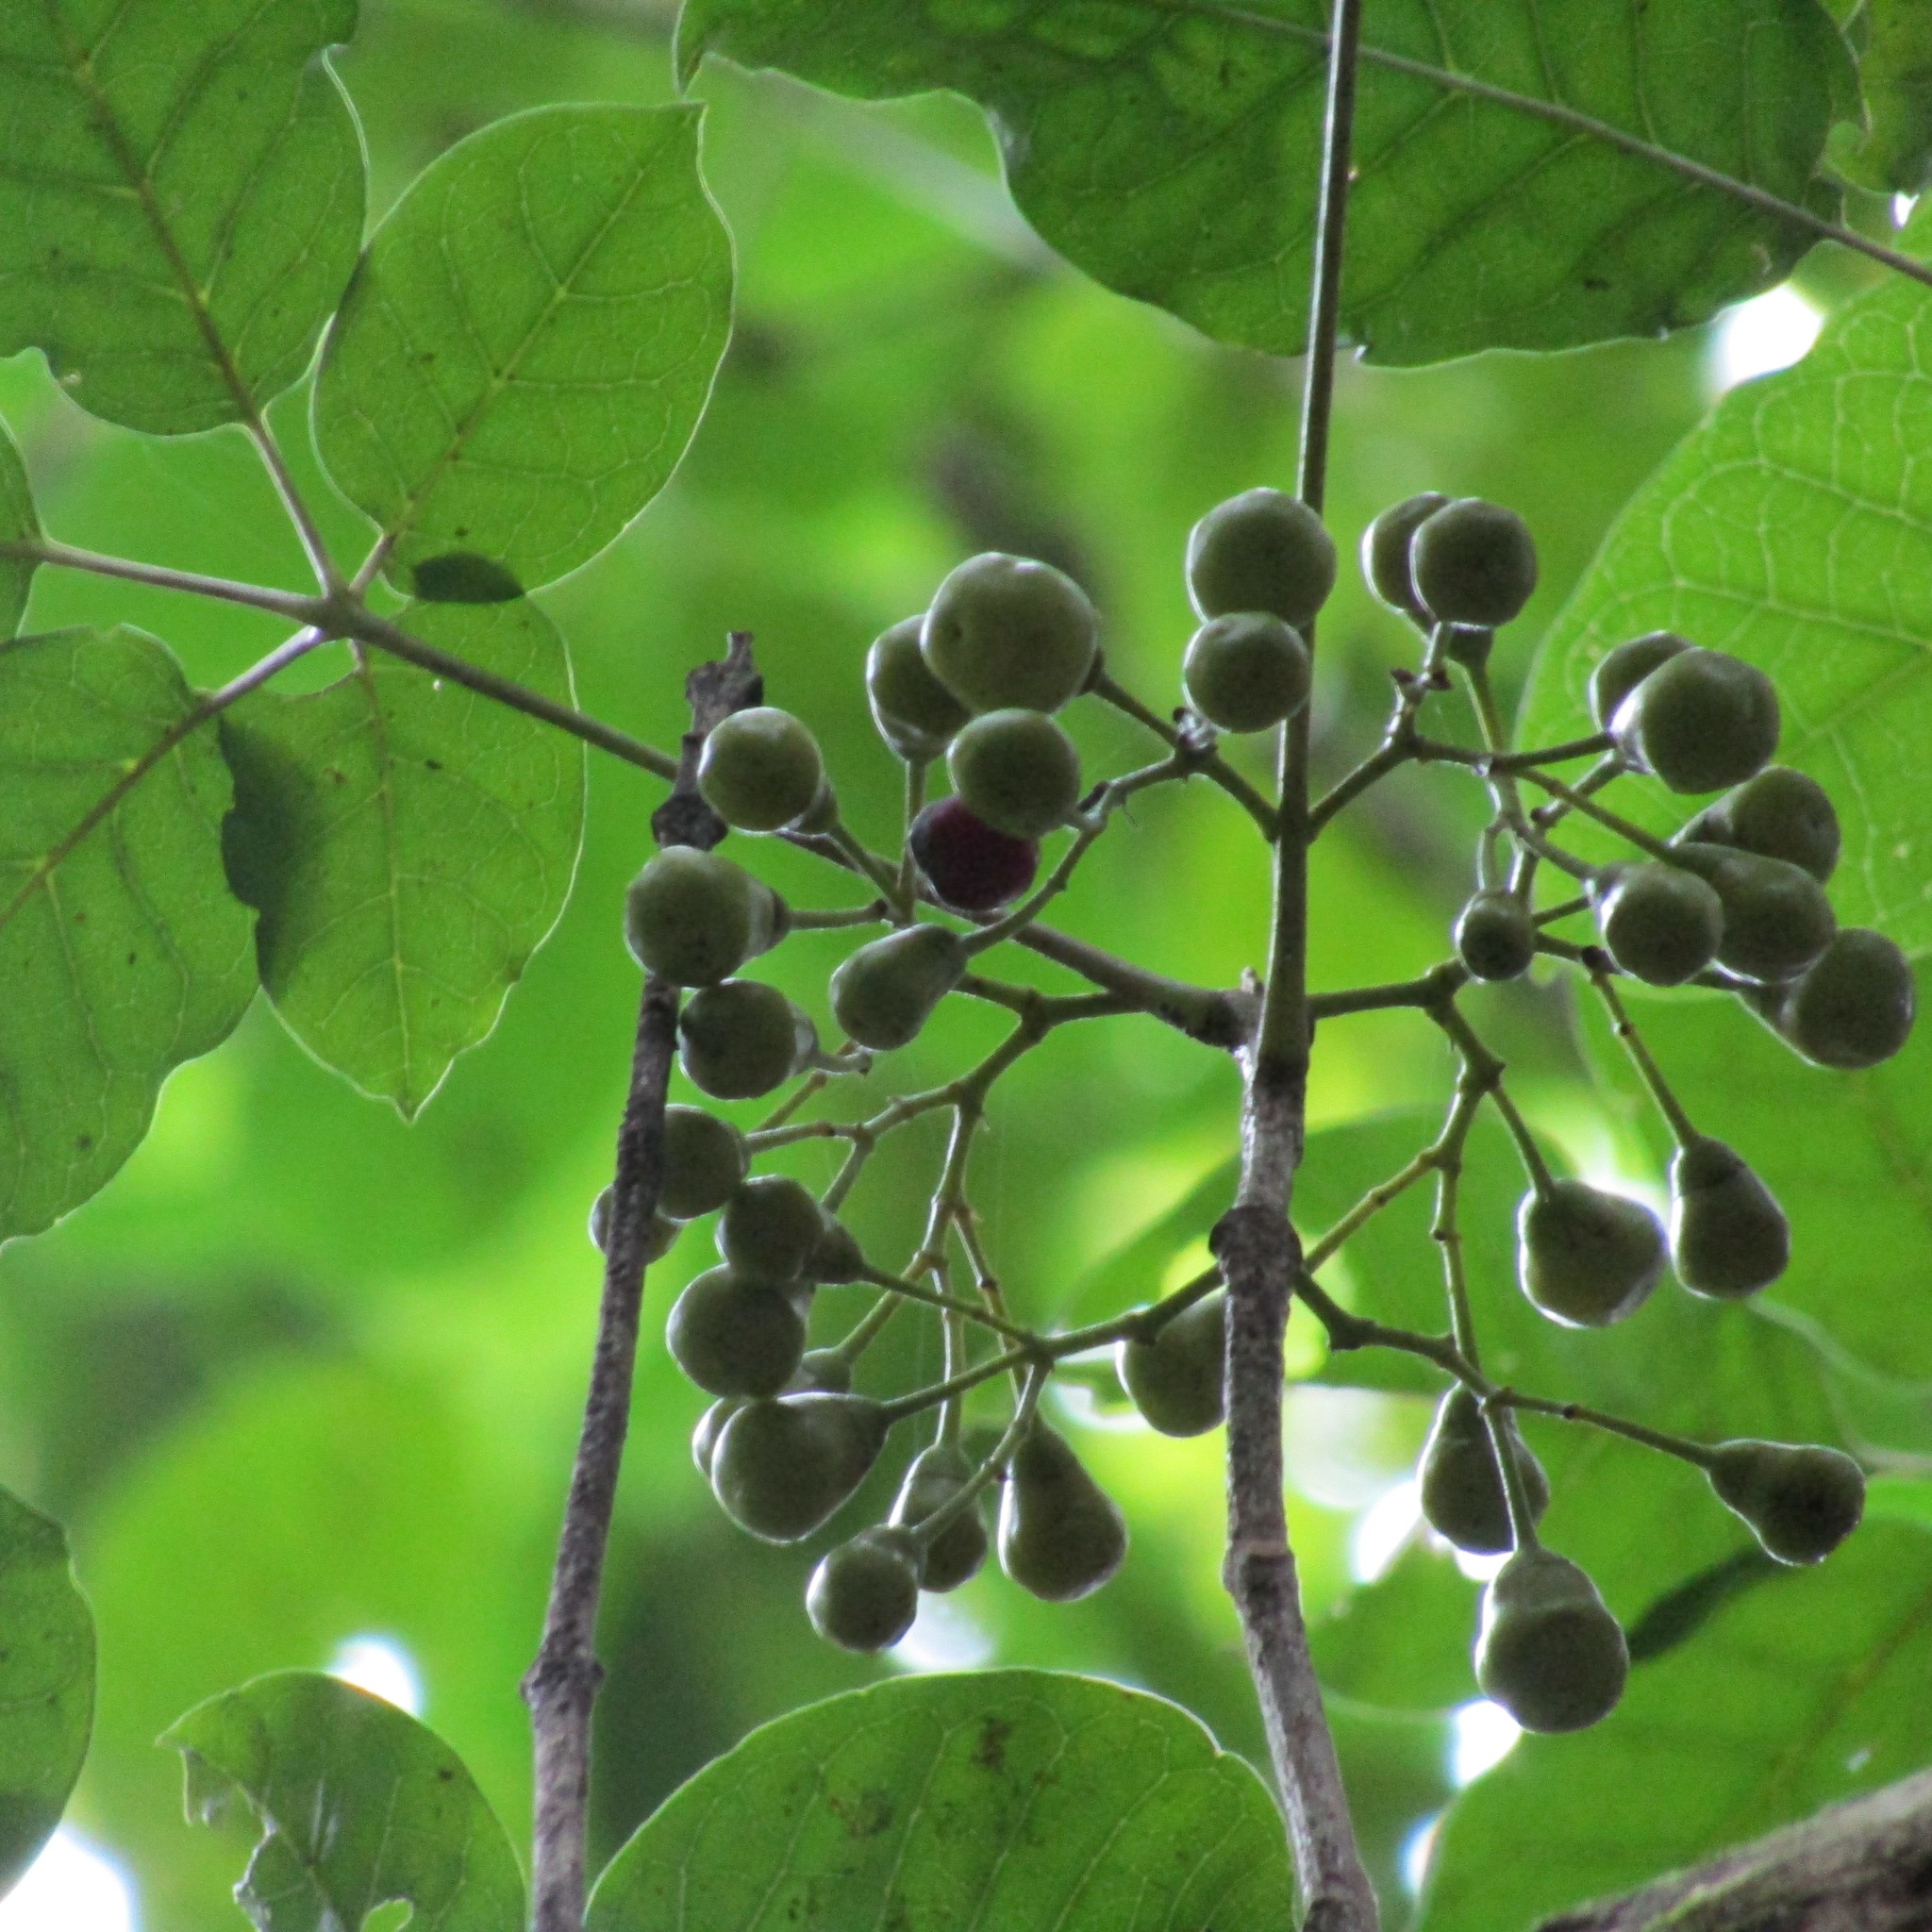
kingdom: Plantae
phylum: Tracheophyta
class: Magnoliopsida
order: Lamiales
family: Lamiaceae
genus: Vitex
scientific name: Vitex lucens
